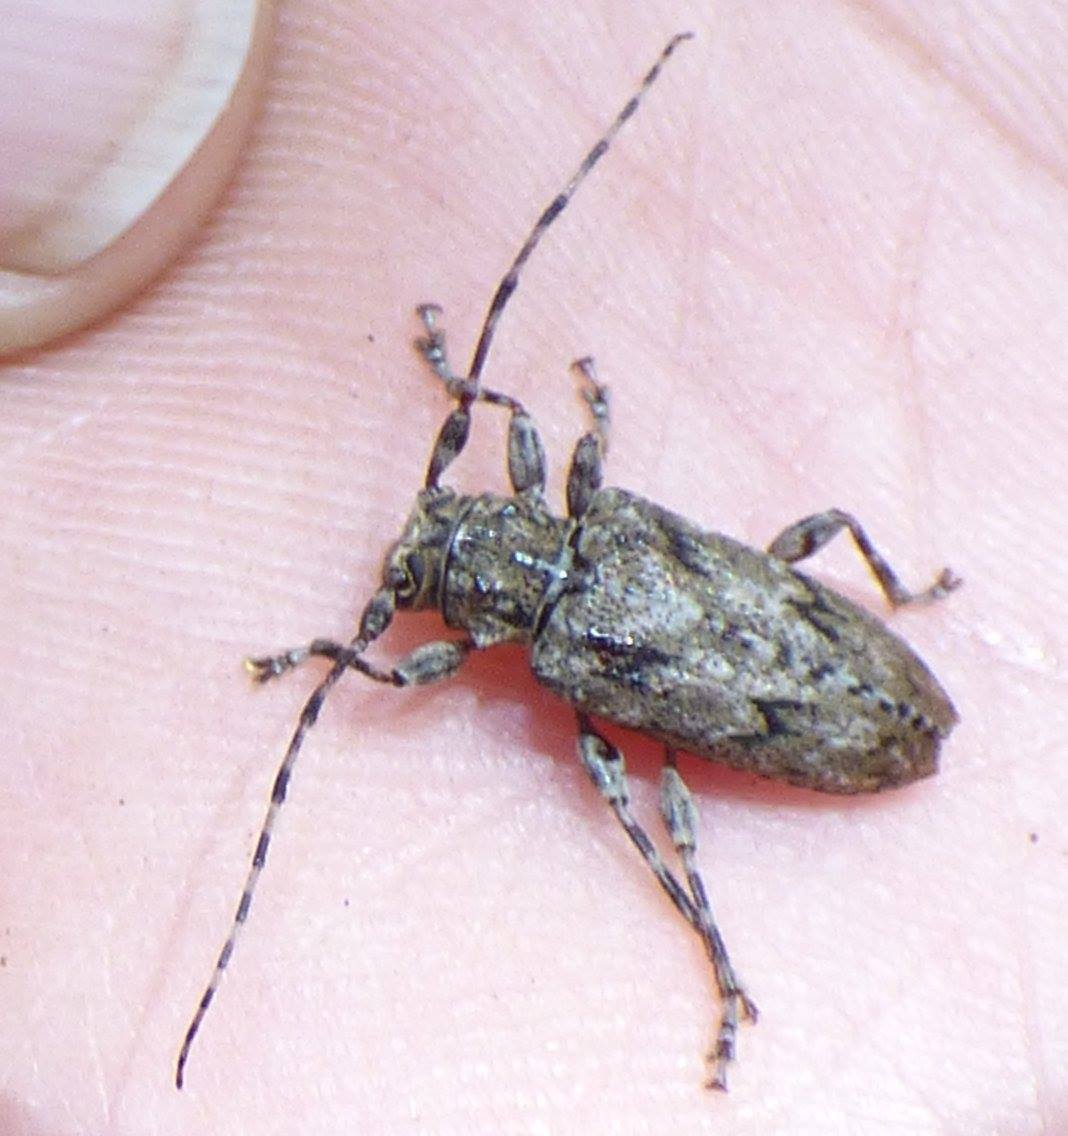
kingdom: Animalia
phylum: Arthropoda
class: Insecta
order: Coleoptera
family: Cerambycidae
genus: Aegomorphus
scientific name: Aegomorphus modestus
